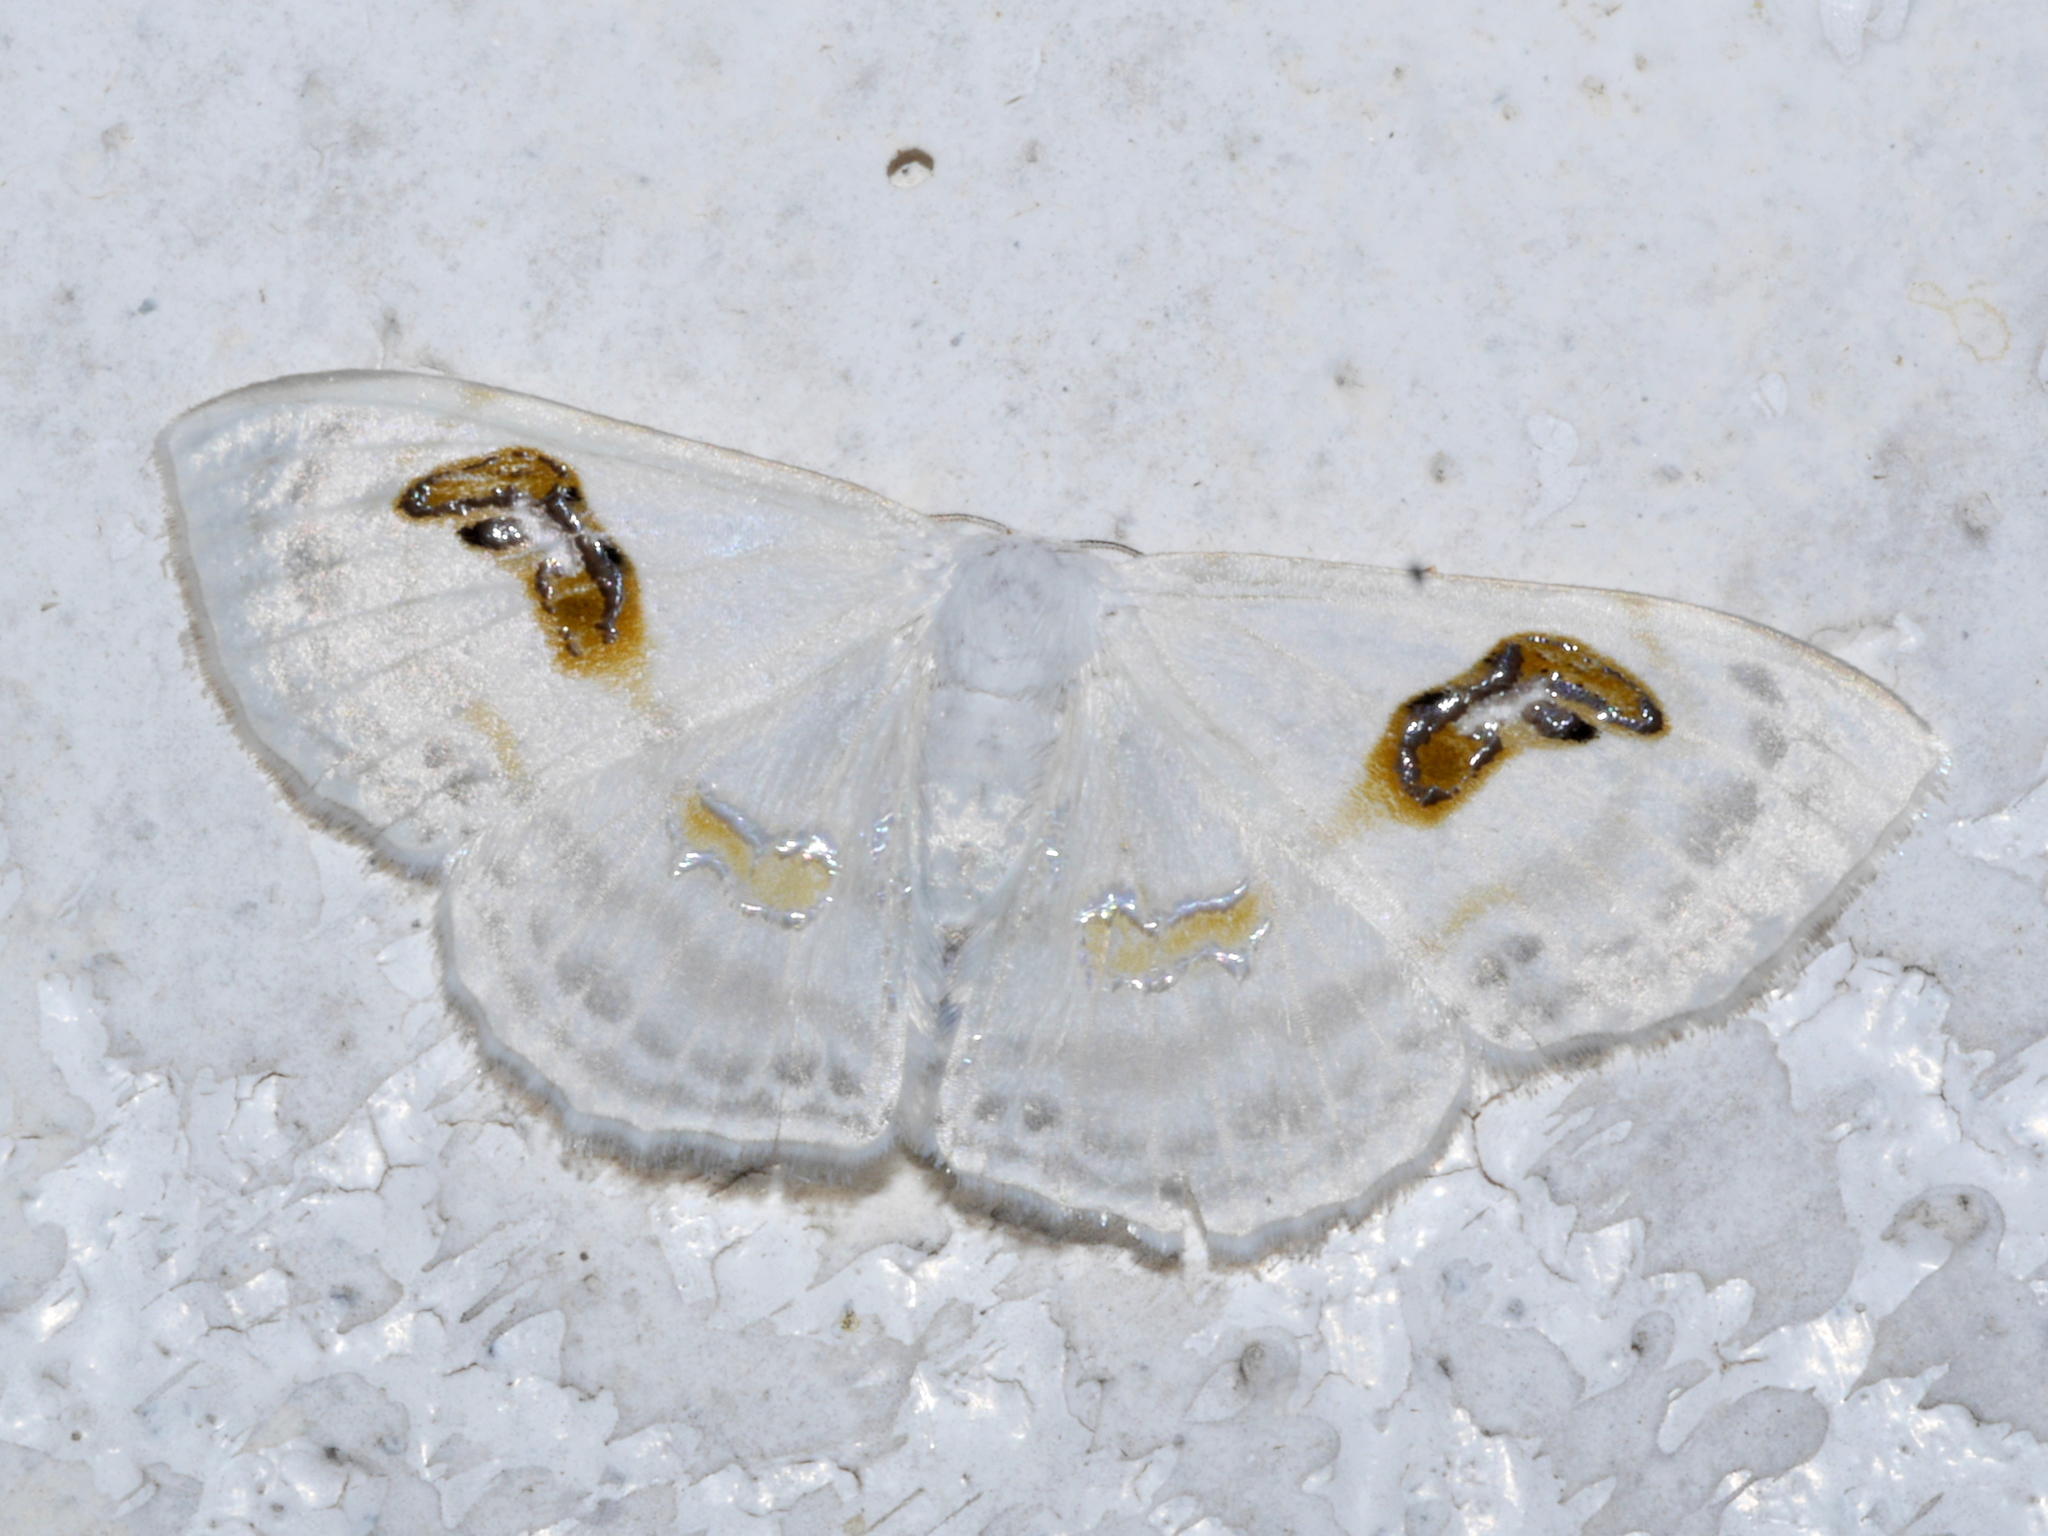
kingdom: Animalia
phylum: Arthropoda
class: Insecta
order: Lepidoptera
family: Geometridae
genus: Problepsis
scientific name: Problepsis digammata
